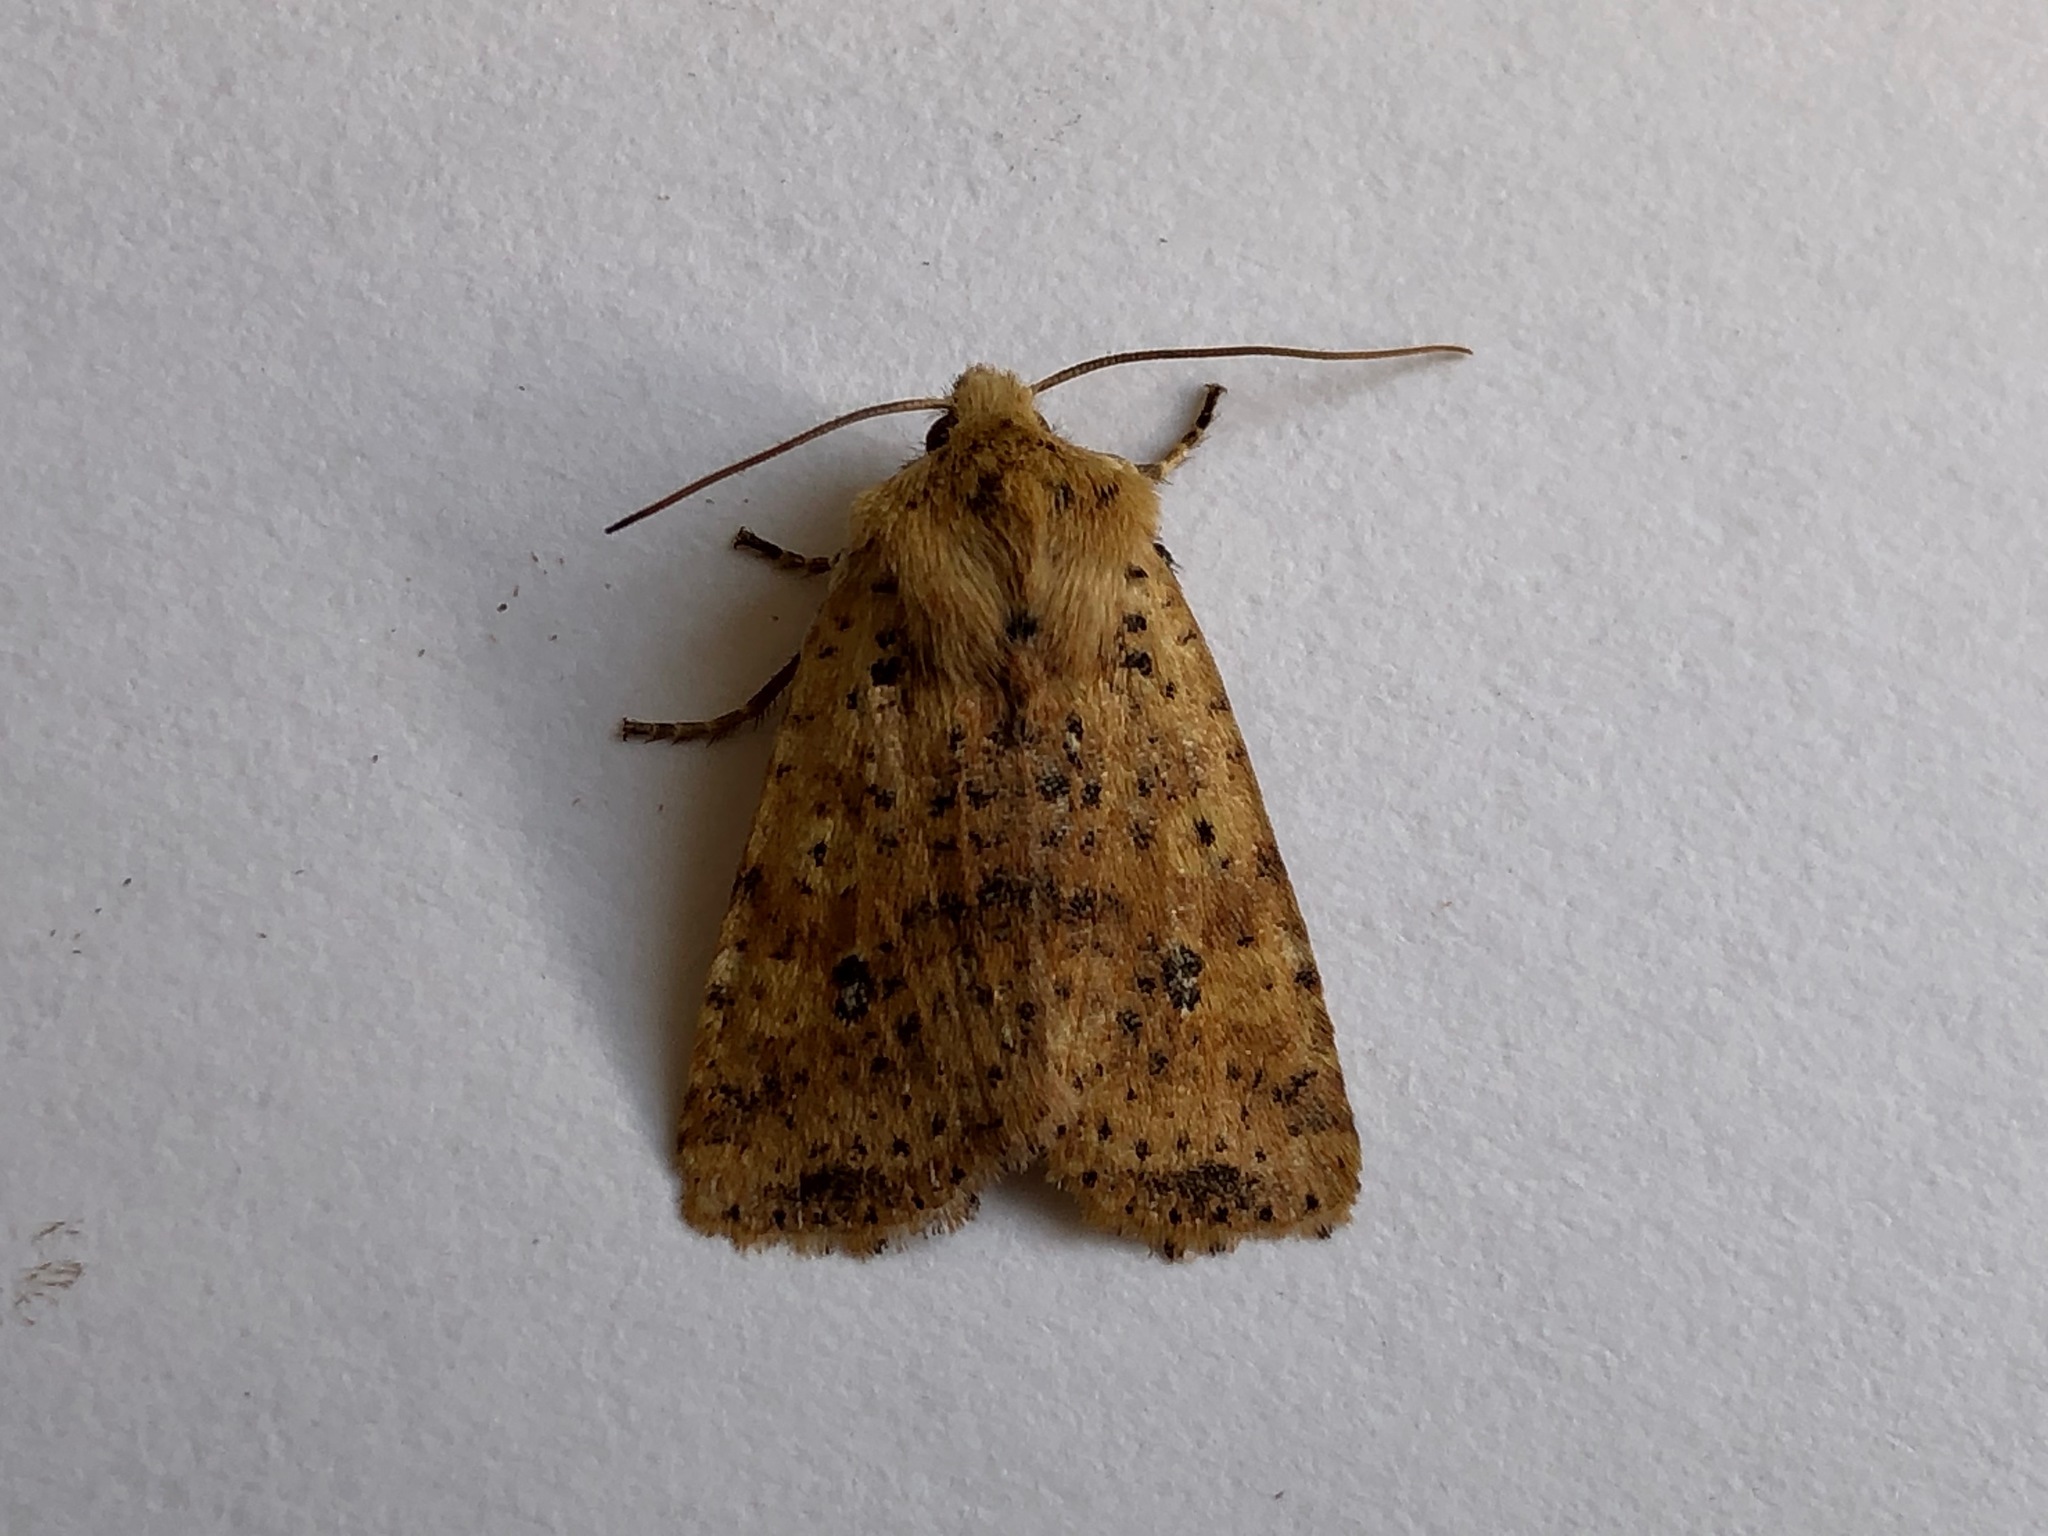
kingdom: Animalia
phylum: Arthropoda
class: Insecta
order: Lepidoptera
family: Noctuidae
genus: Conistra
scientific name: Conistra rubiginea
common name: Dotted chestnut
